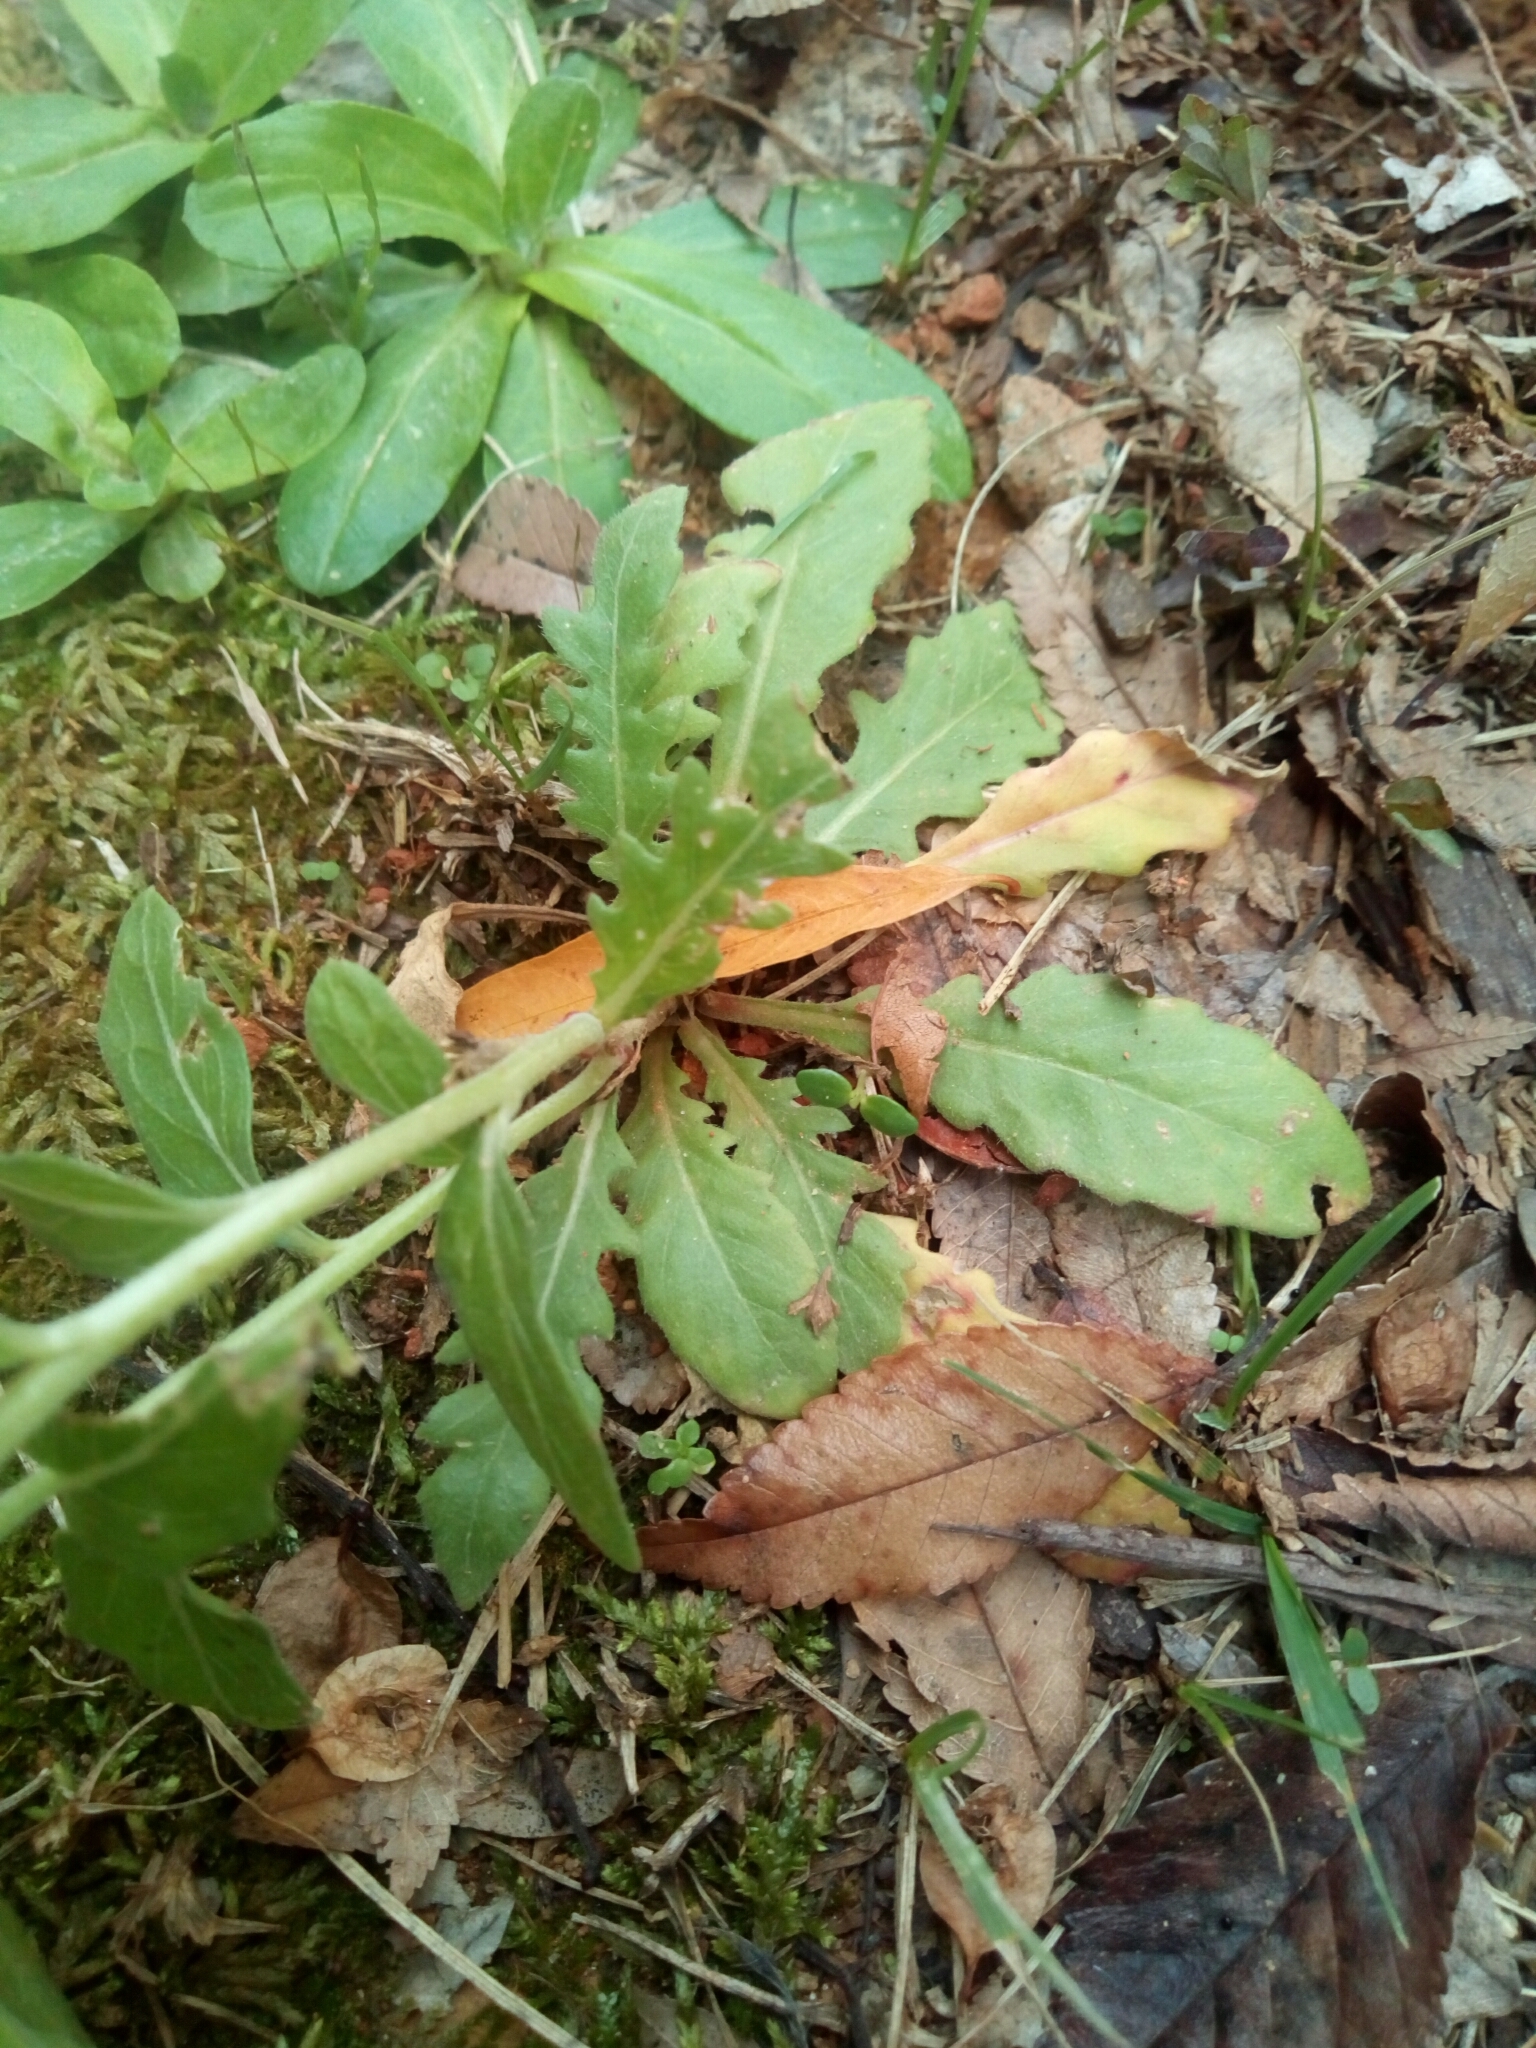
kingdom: Plantae
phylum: Tracheophyta
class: Magnoliopsida
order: Myrtales
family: Onagraceae
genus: Oenothera
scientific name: Oenothera laciniata
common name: Cut-leaved evening-primrose
